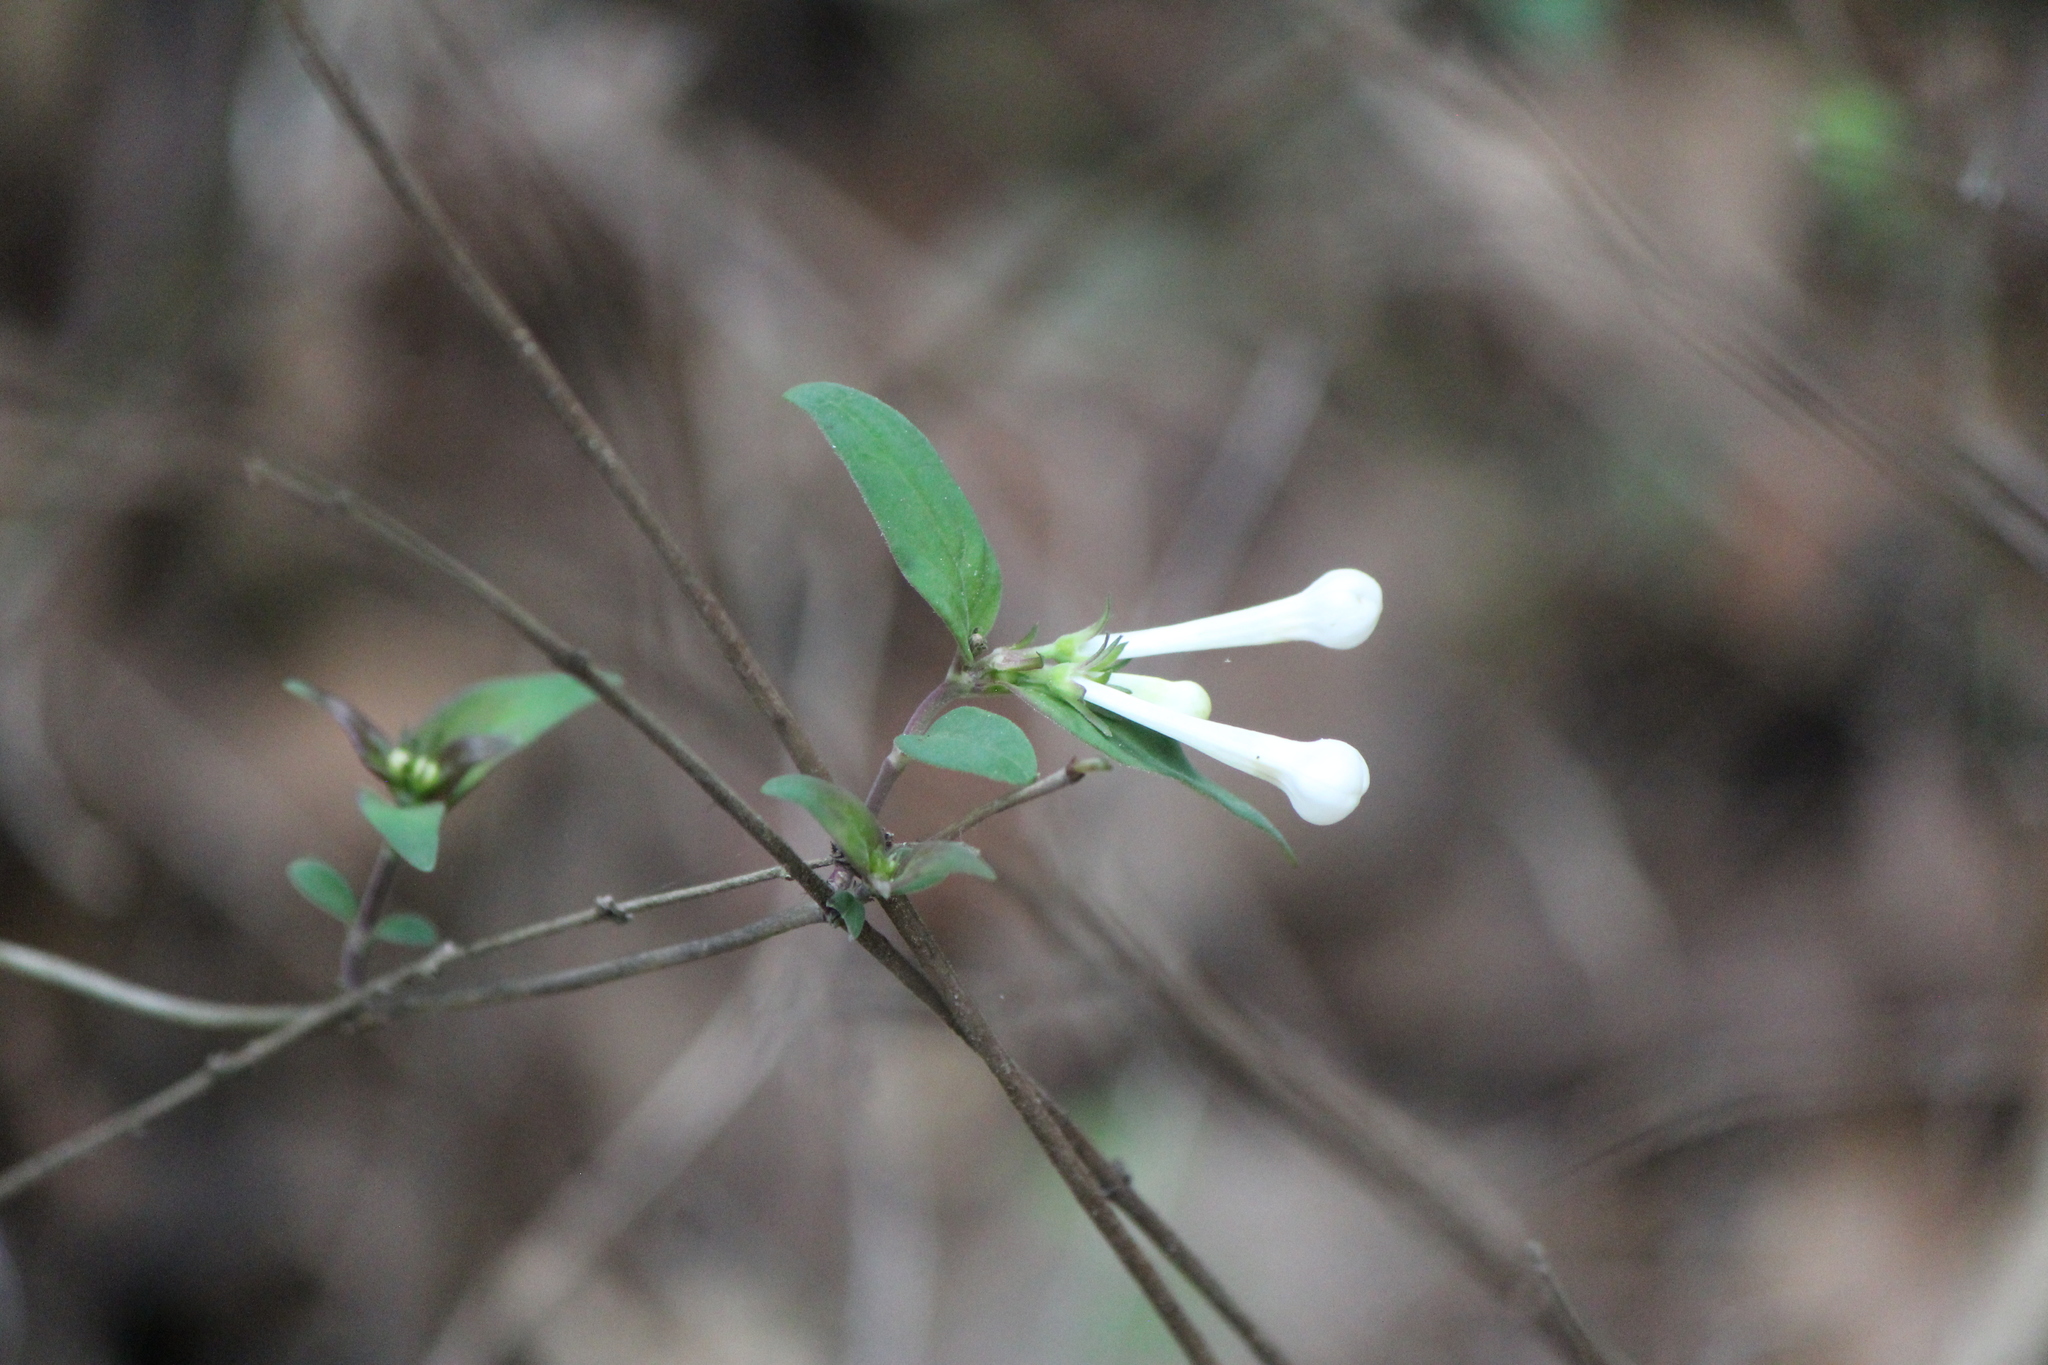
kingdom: Plantae
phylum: Tracheophyta
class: Magnoliopsida
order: Gentianales
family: Rubiaceae
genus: Bouvardia
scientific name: Bouvardia longiflora
